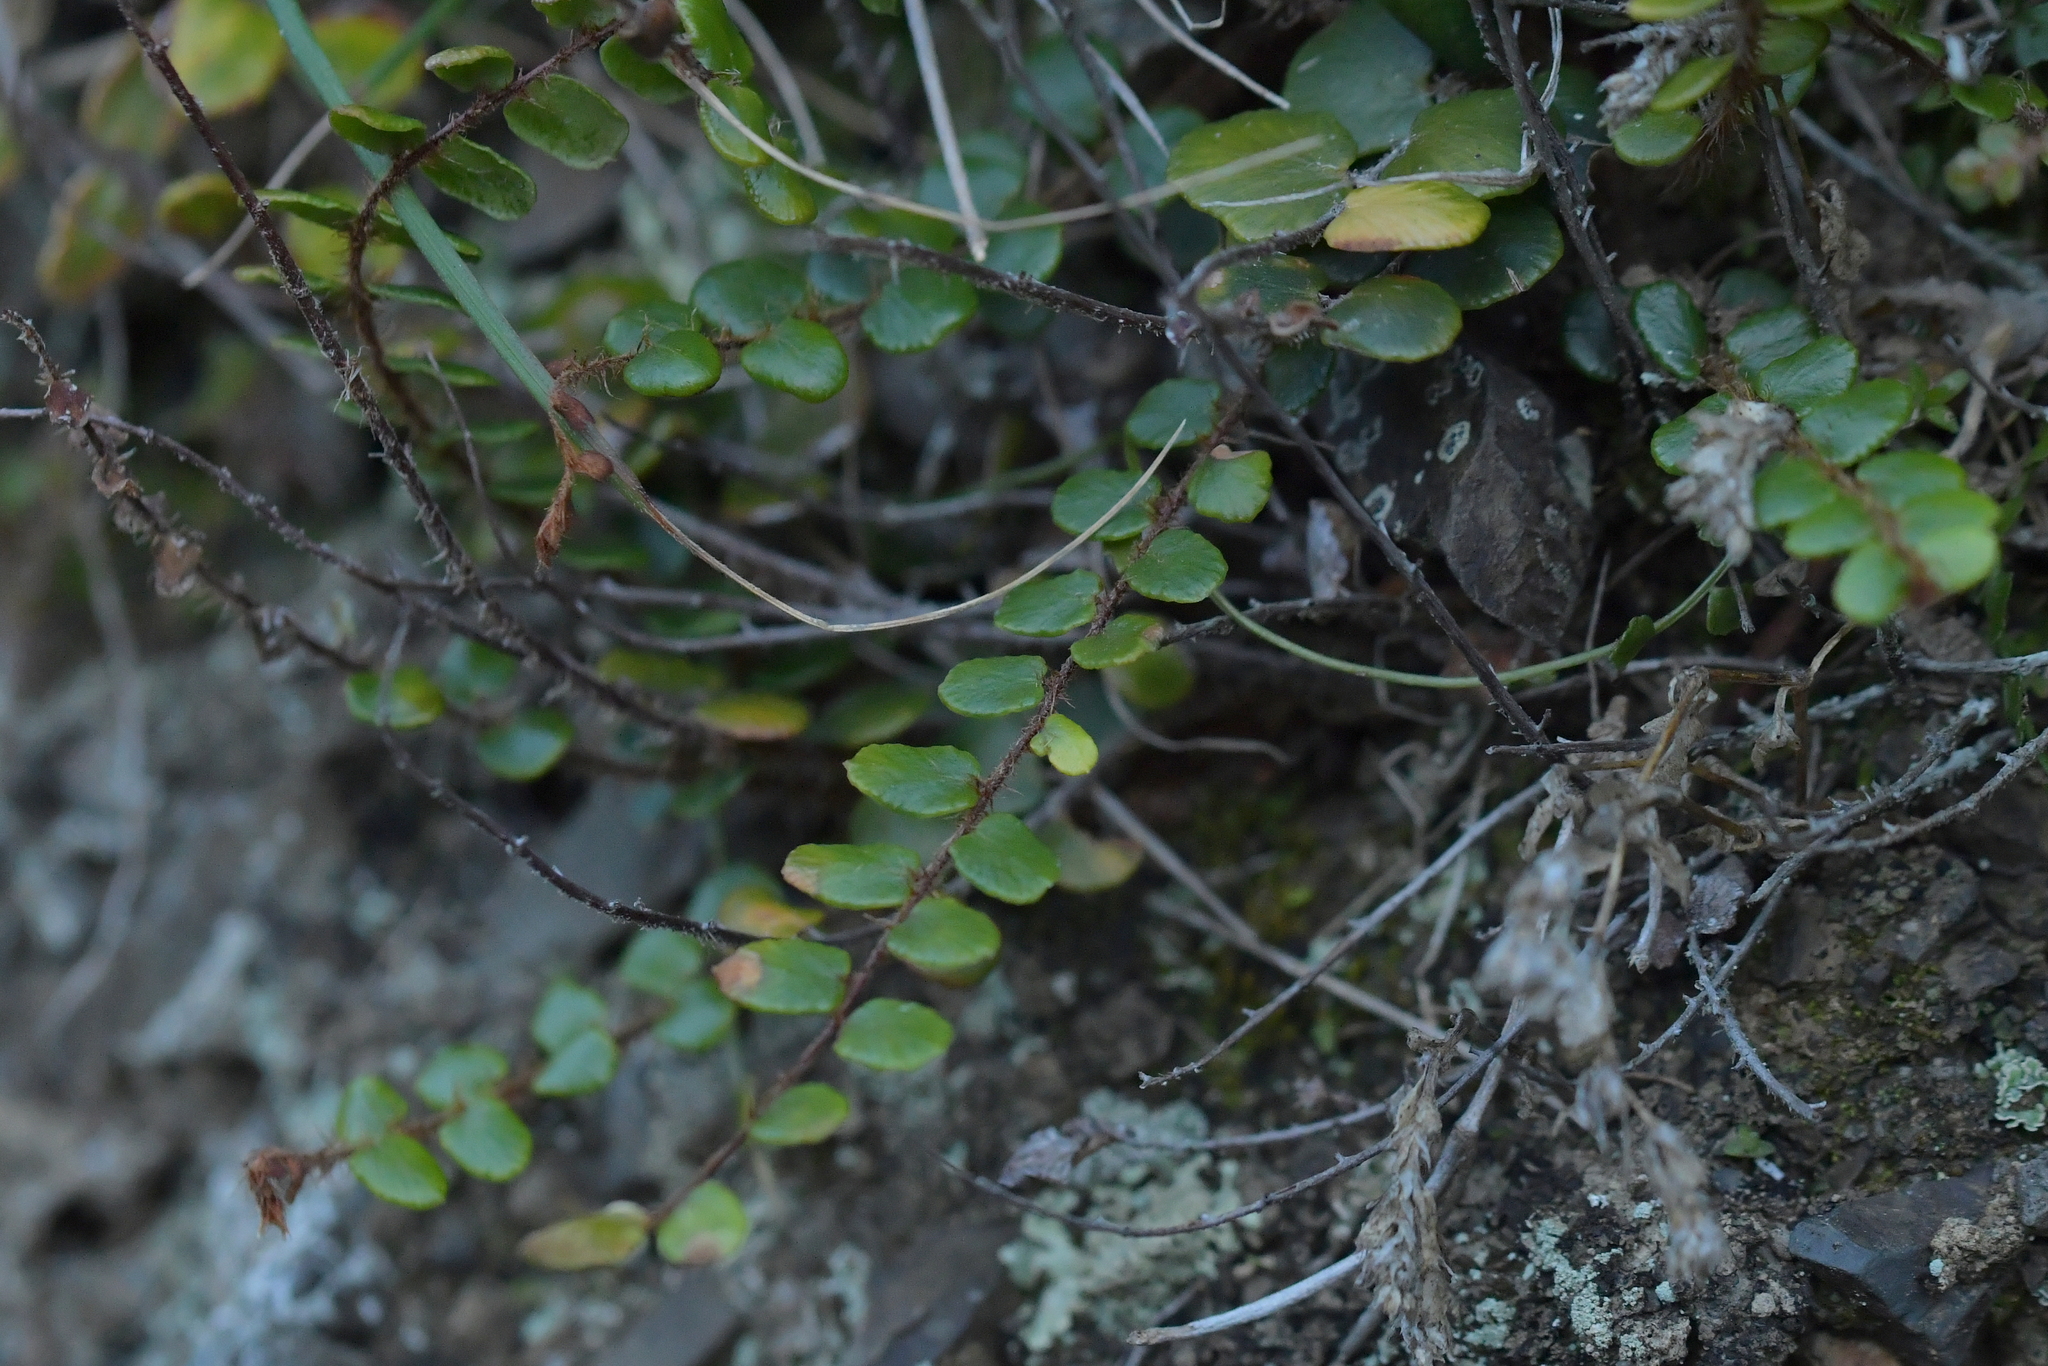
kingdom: Plantae
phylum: Tracheophyta
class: Polypodiopsida
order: Polypodiales
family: Pteridaceae
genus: Pellaea
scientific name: Pellaea rotundifolia
